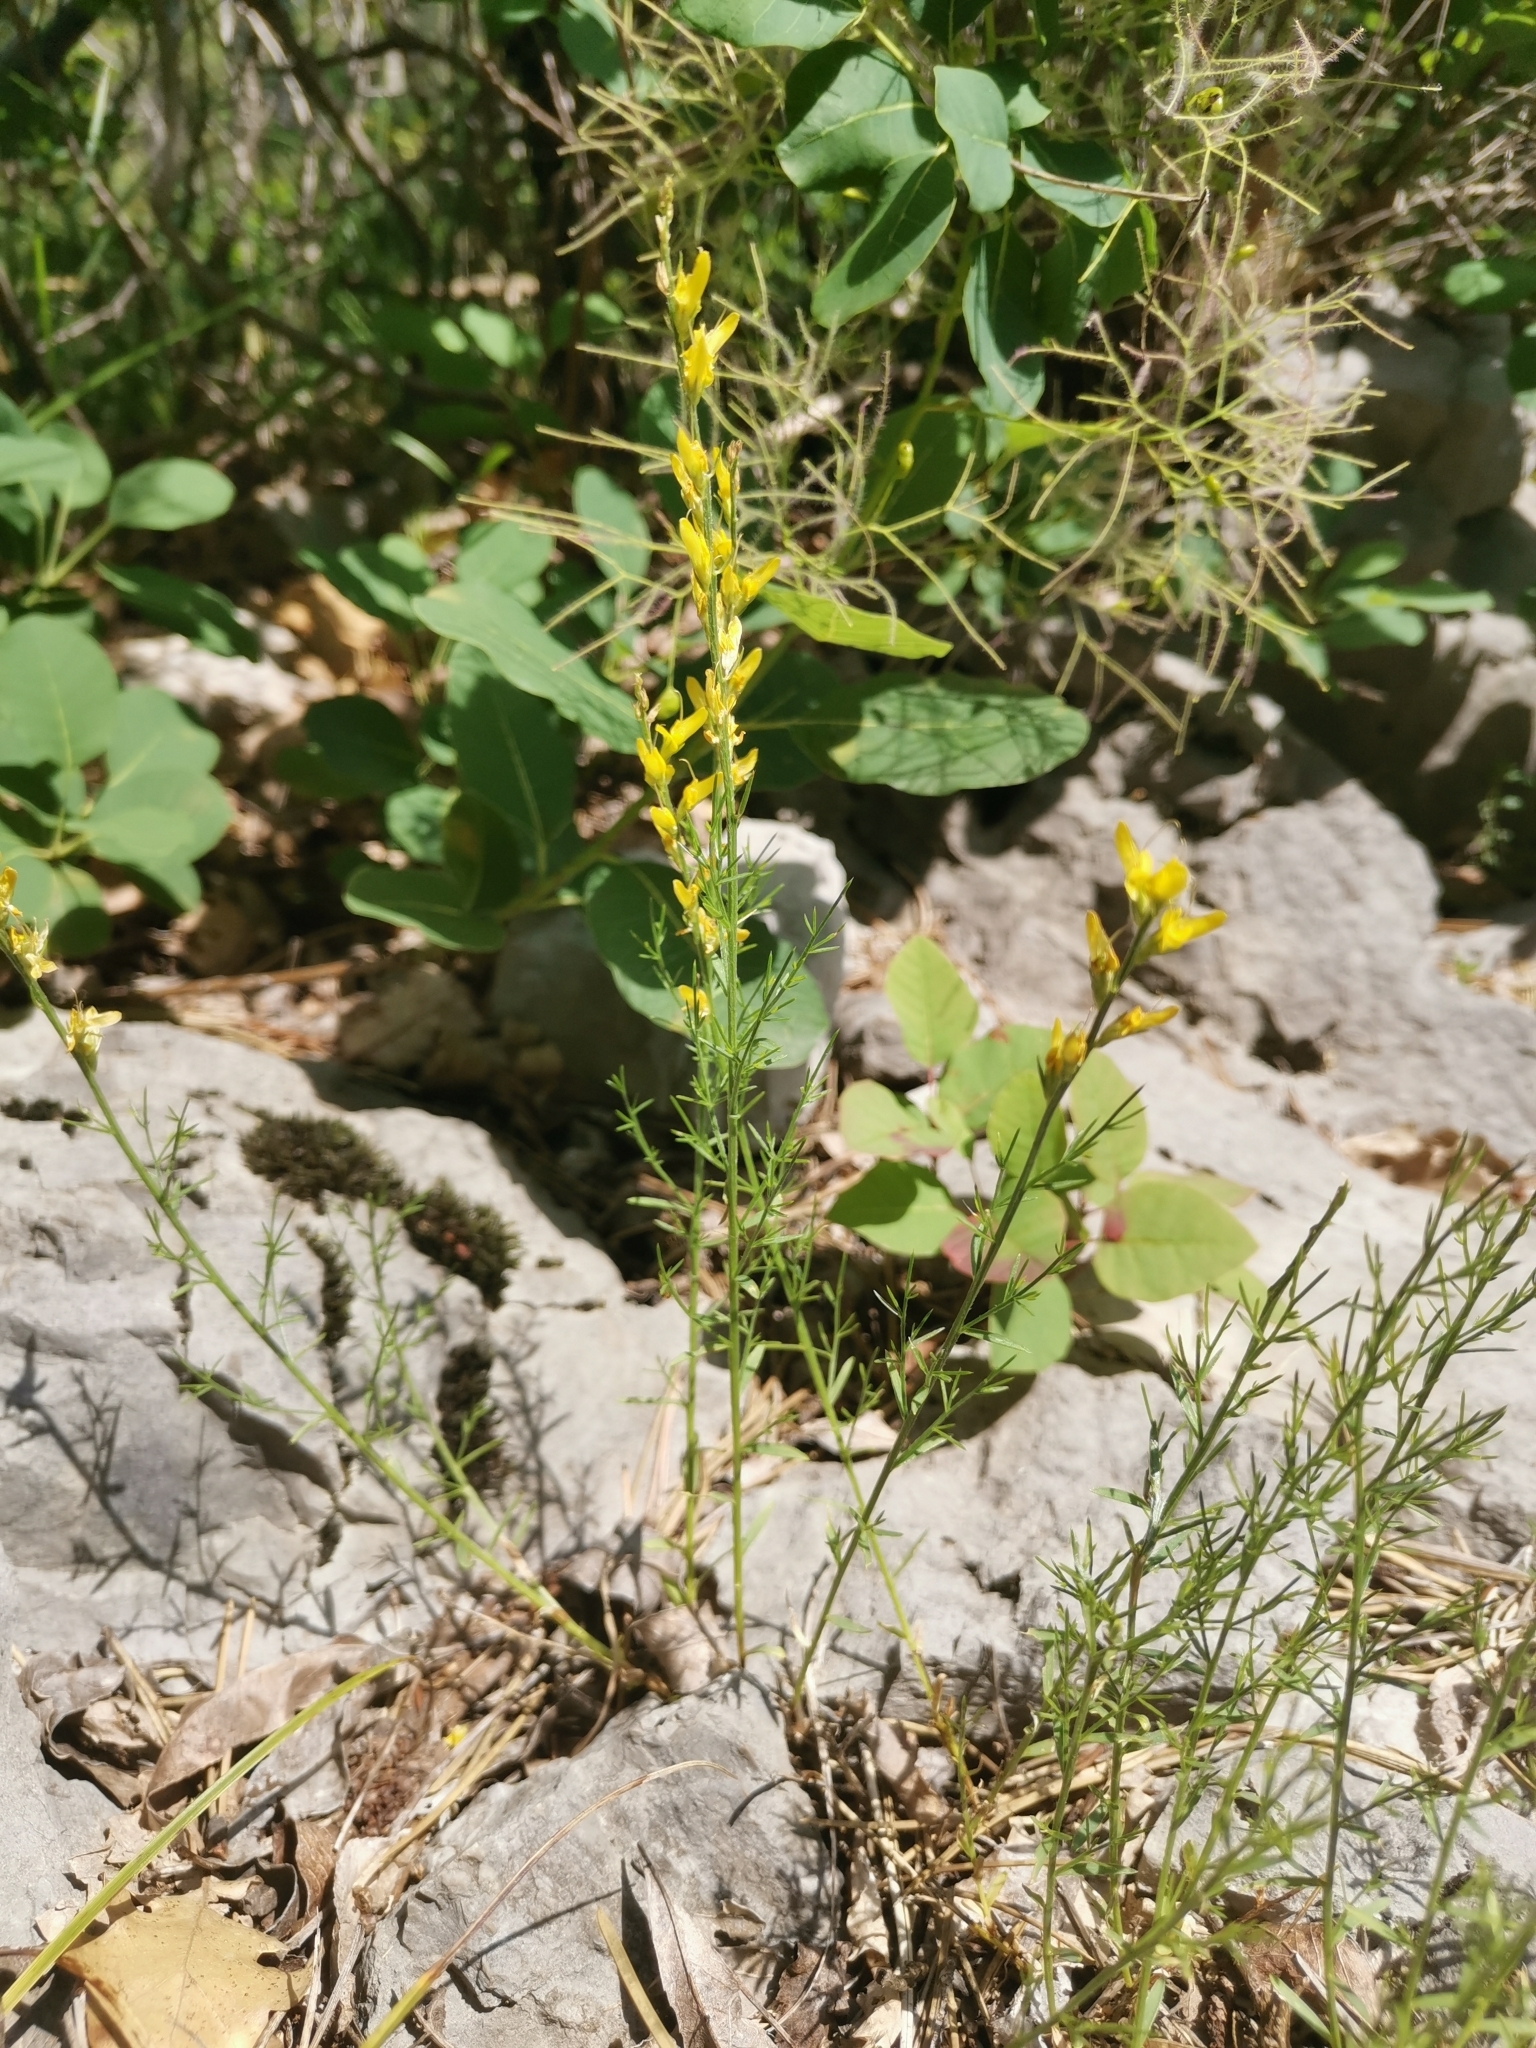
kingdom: Plantae
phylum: Tracheophyta
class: Magnoliopsida
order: Fabales
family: Fabaceae
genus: Genista
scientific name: Genista sylvestris
